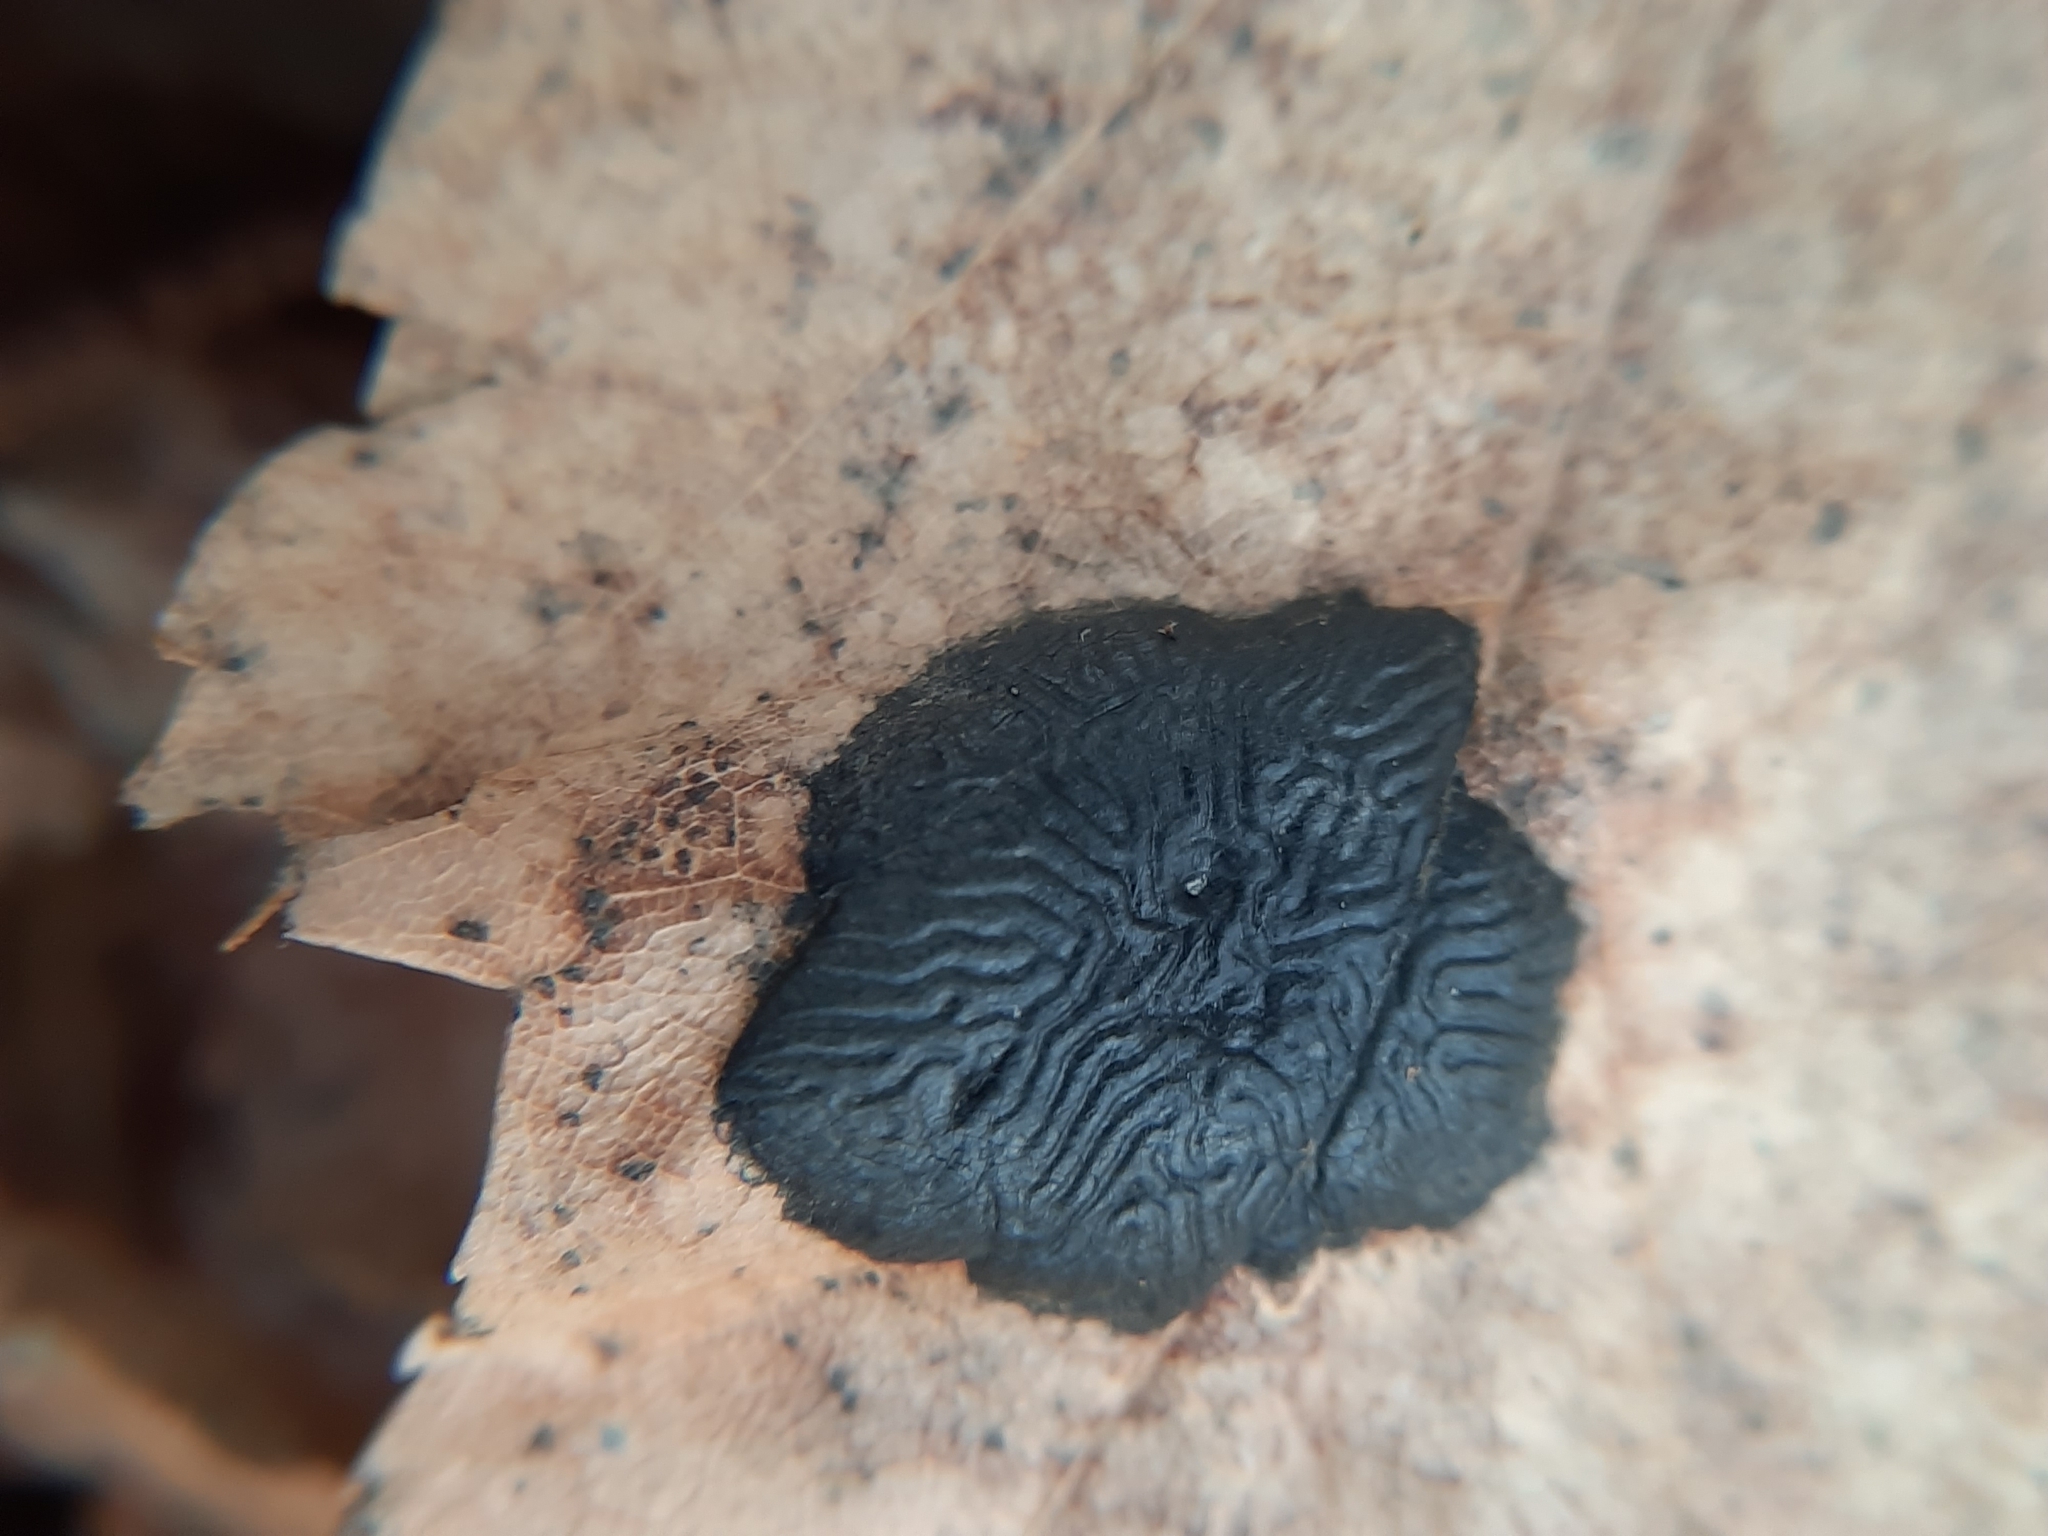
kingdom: Fungi
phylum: Ascomycota
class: Leotiomycetes
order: Rhytismatales
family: Rhytismataceae
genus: Rhytisma
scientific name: Rhytisma americanum
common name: American tar spot
